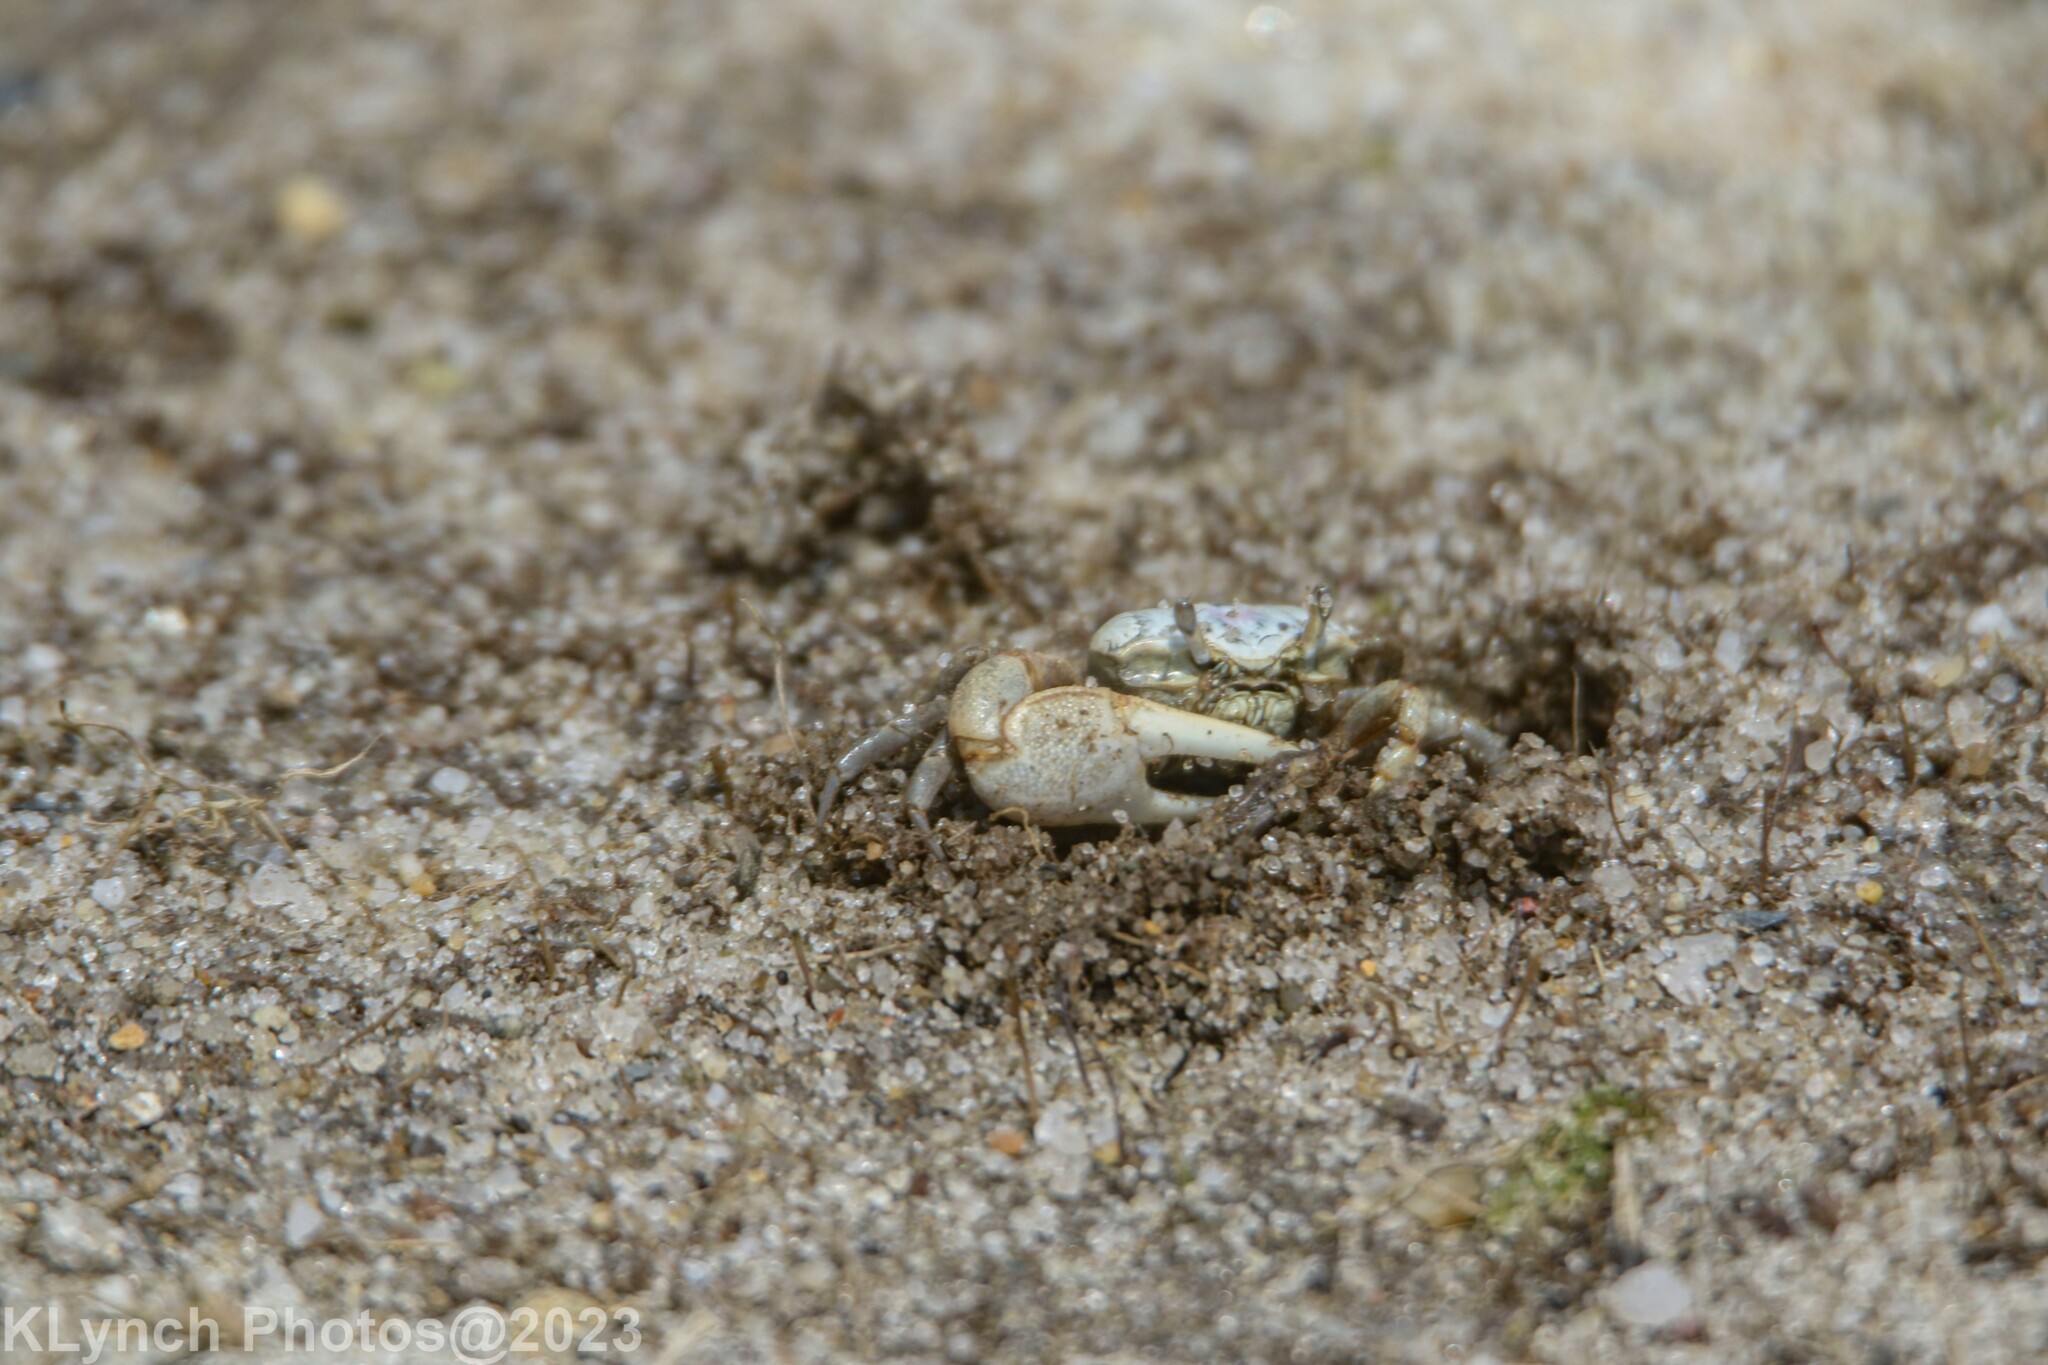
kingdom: Animalia
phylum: Arthropoda
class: Malacostraca
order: Decapoda
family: Ocypodidae
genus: Leptuca
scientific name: Leptuca pugilator
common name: Atlantic sand fiddler crab
